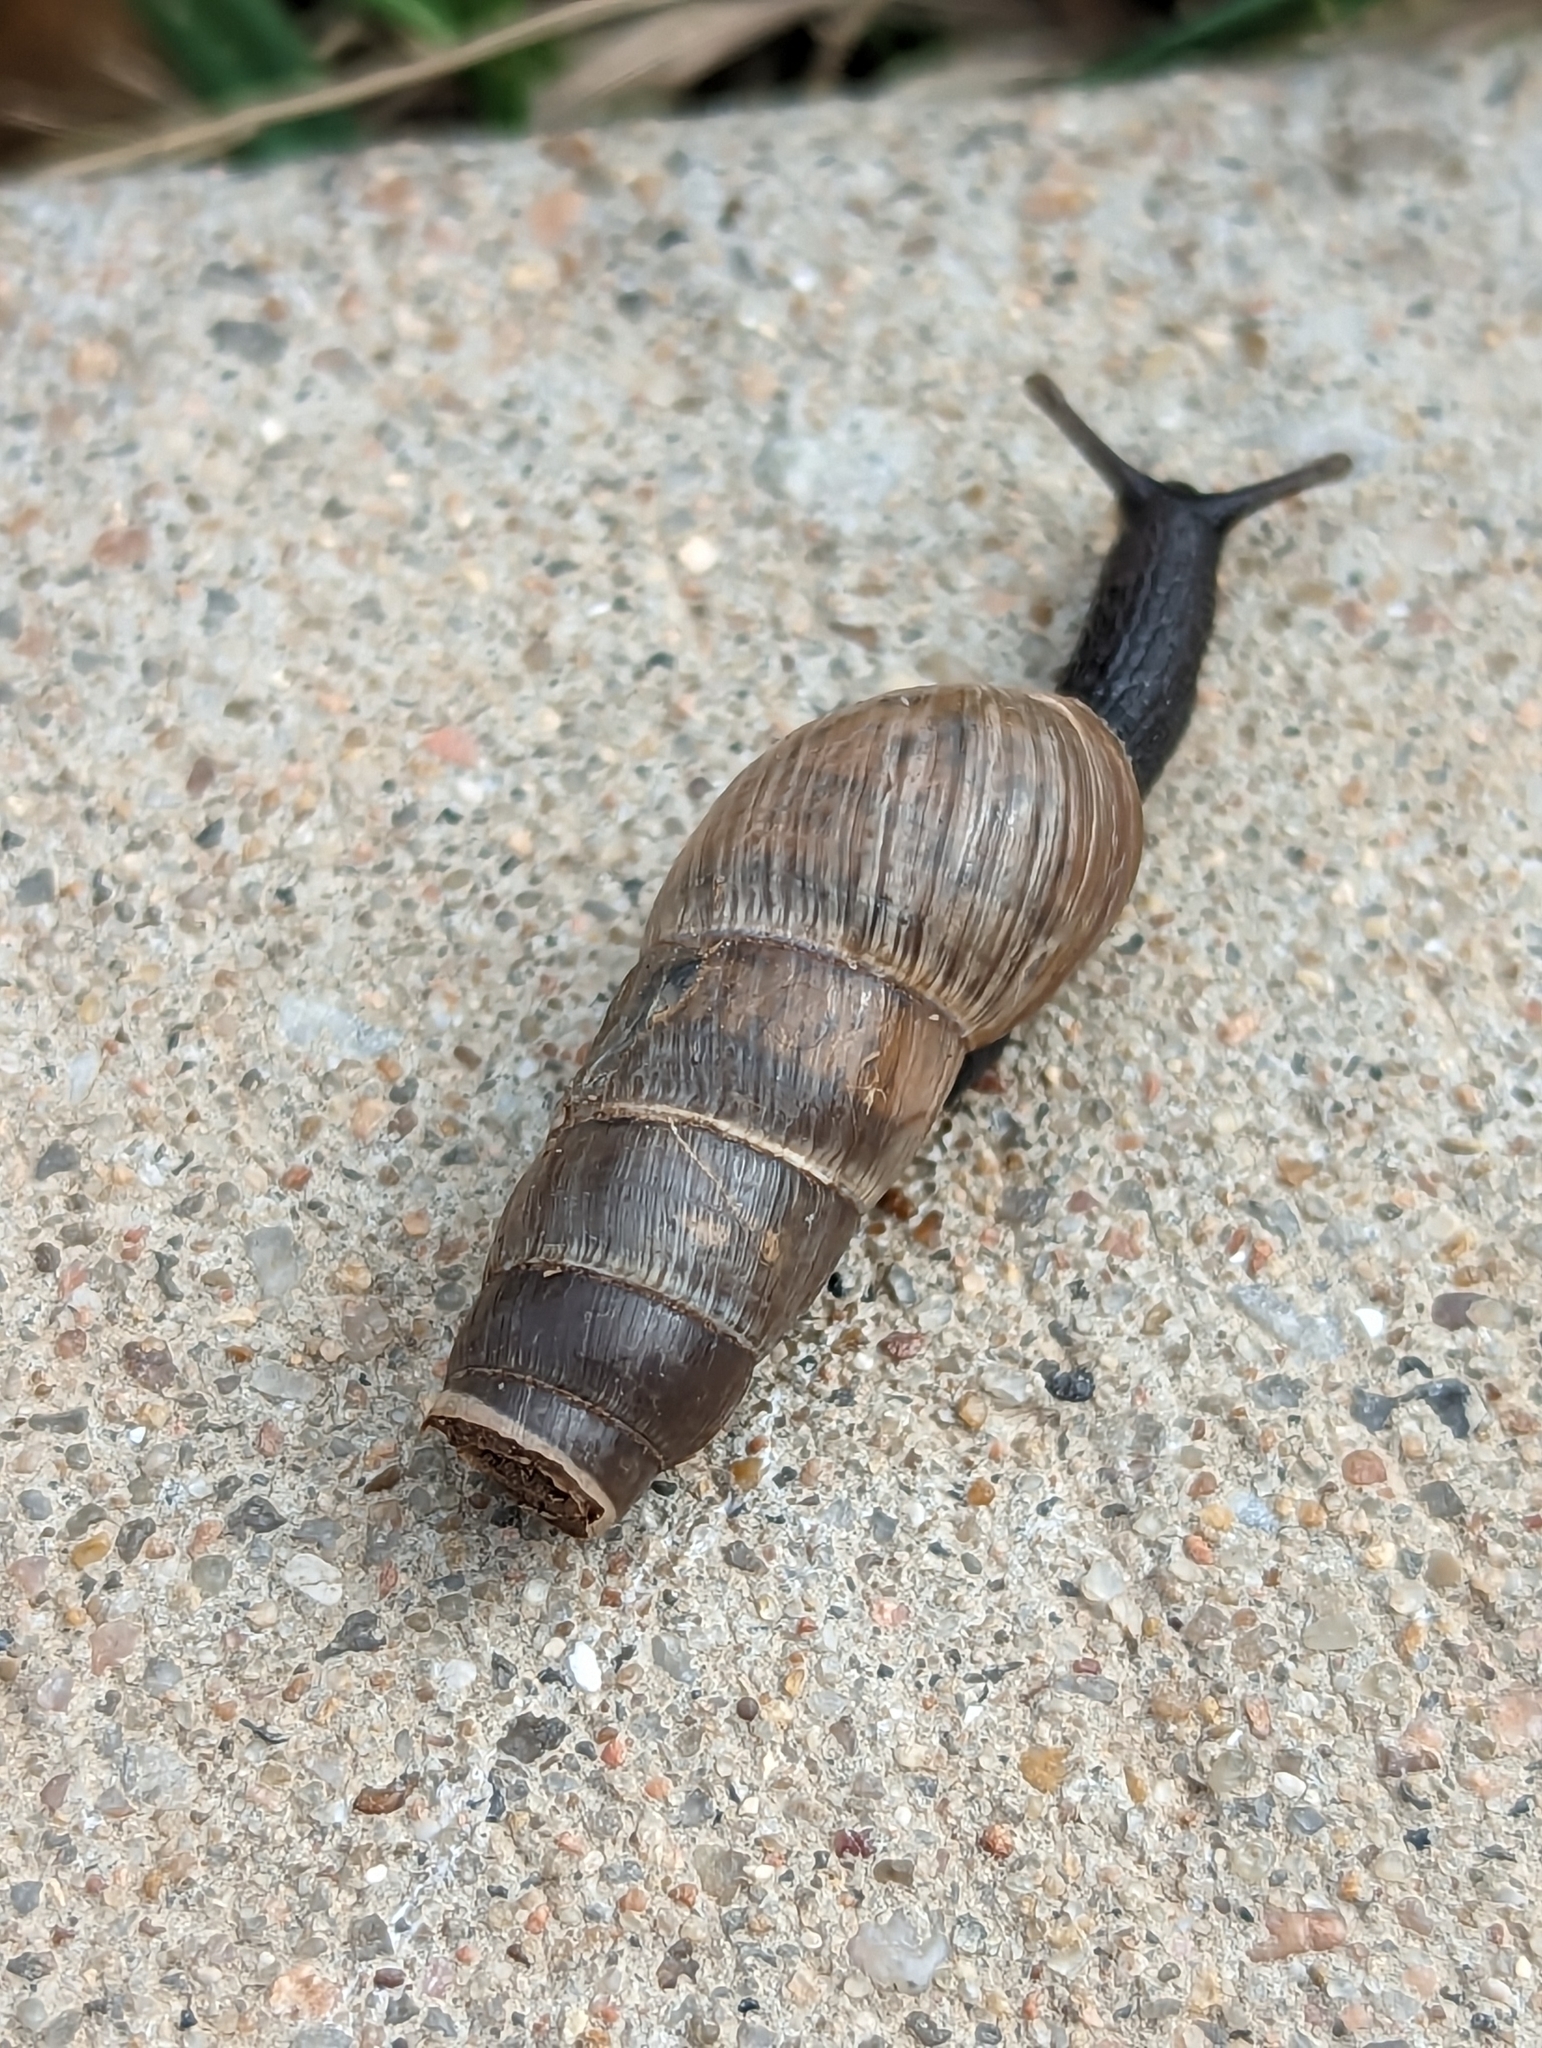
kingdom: Animalia
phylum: Mollusca
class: Gastropoda
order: Stylommatophora
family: Achatinidae
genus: Rumina
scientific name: Rumina decollata
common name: Decollate snail
